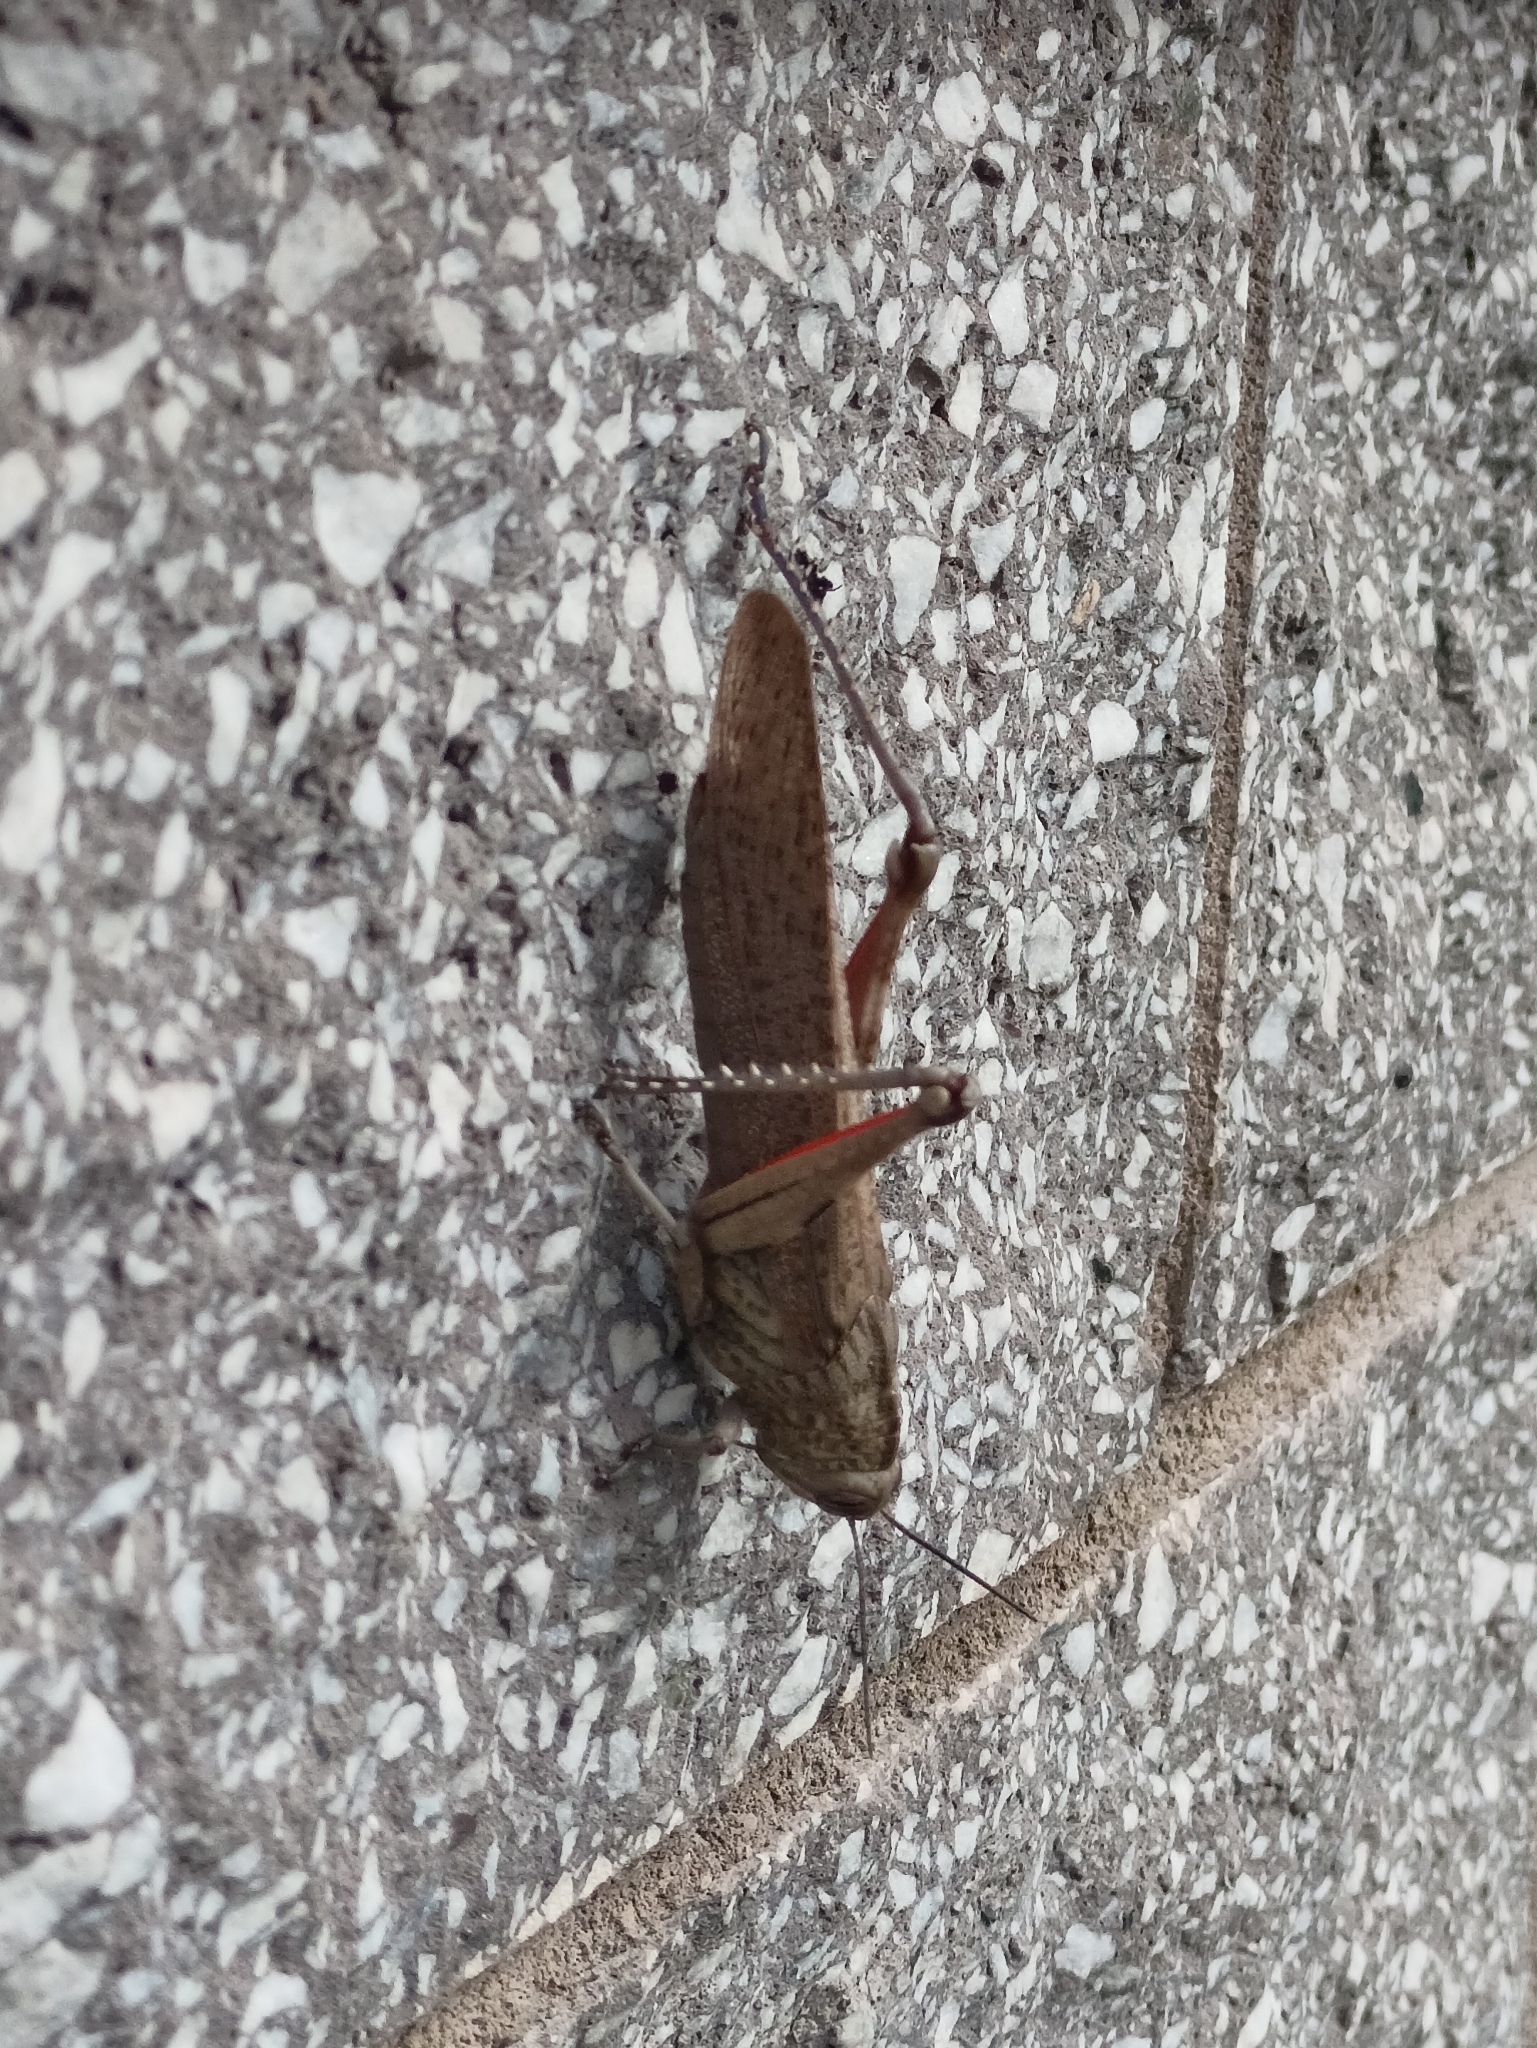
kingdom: Animalia
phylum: Arthropoda
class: Insecta
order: Orthoptera
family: Acrididae
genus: Anacridium
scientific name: Anacridium aegyptium
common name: Egyptian grasshopper
